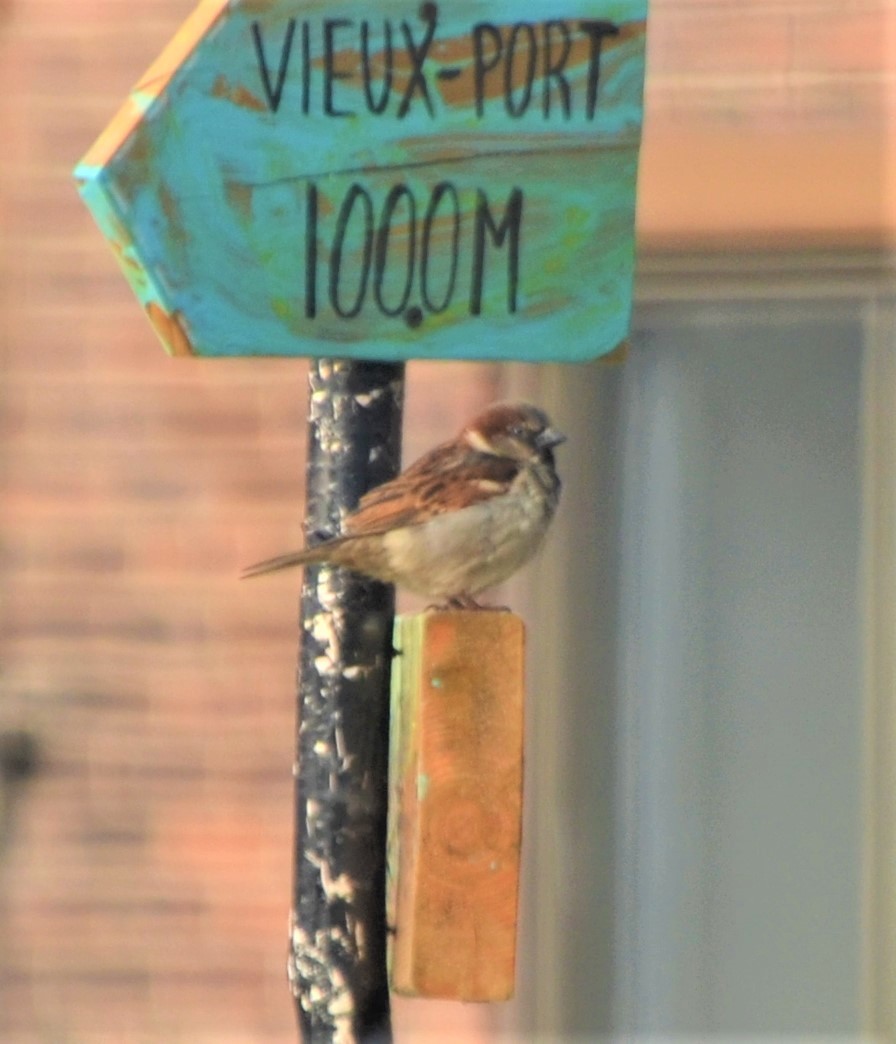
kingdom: Animalia
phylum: Chordata
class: Aves
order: Passeriformes
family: Passeridae
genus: Passer
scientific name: Passer domesticus
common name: House sparrow
